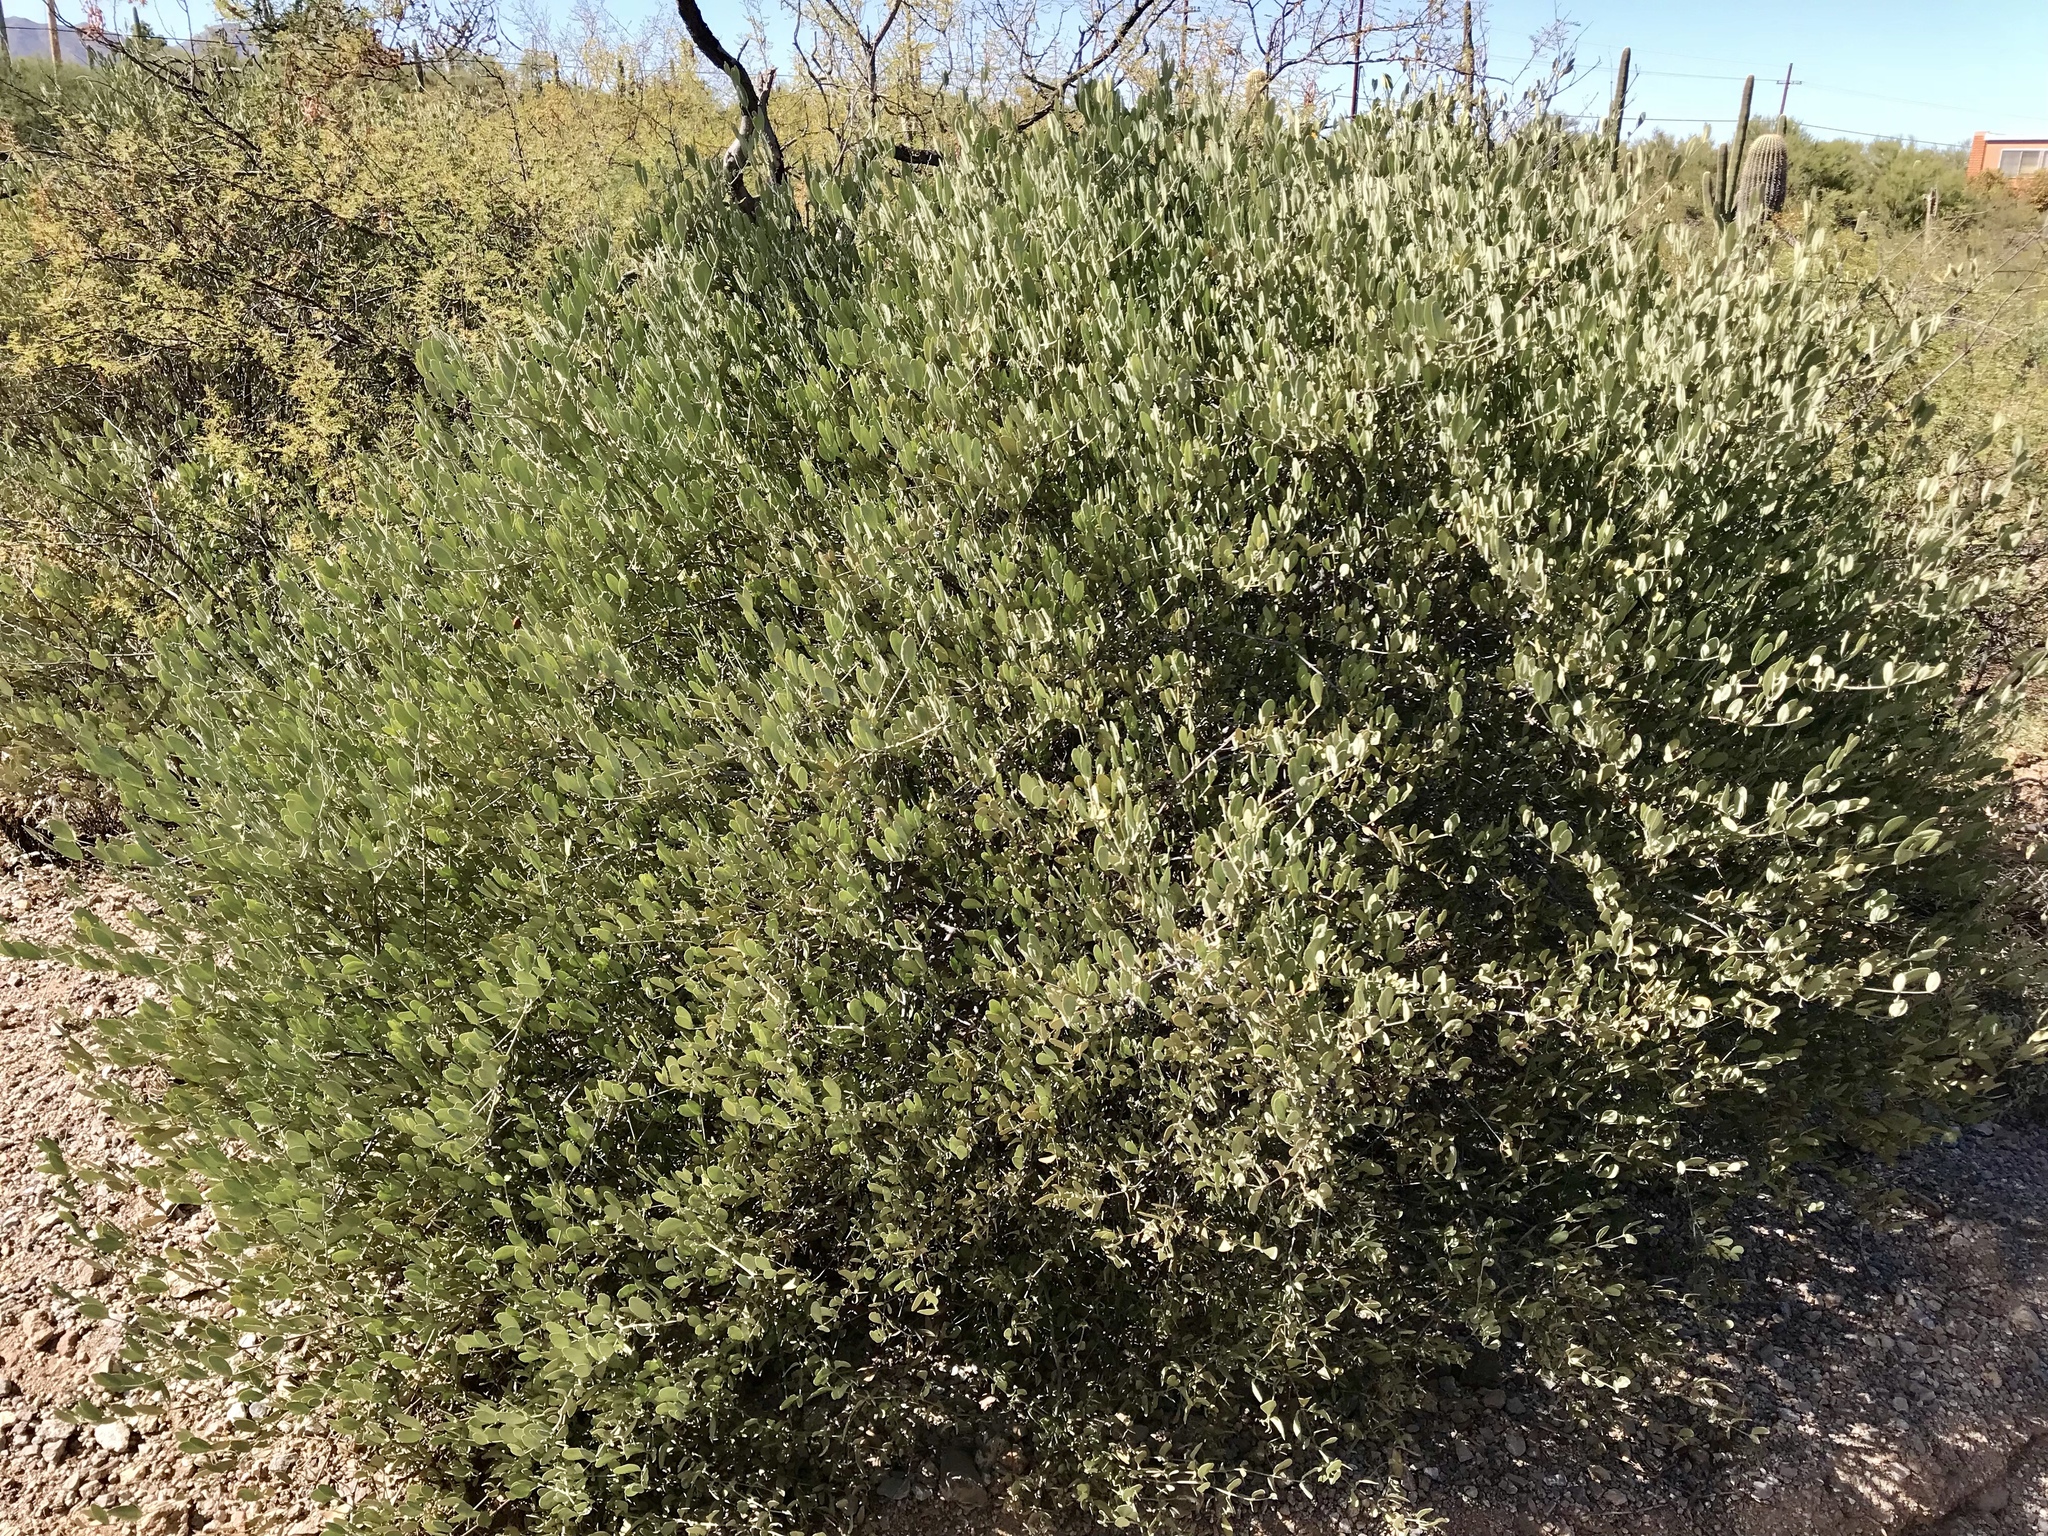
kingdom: Plantae
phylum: Tracheophyta
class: Magnoliopsida
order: Caryophyllales
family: Simmondsiaceae
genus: Simmondsia
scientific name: Simmondsia chinensis
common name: Jojoba
